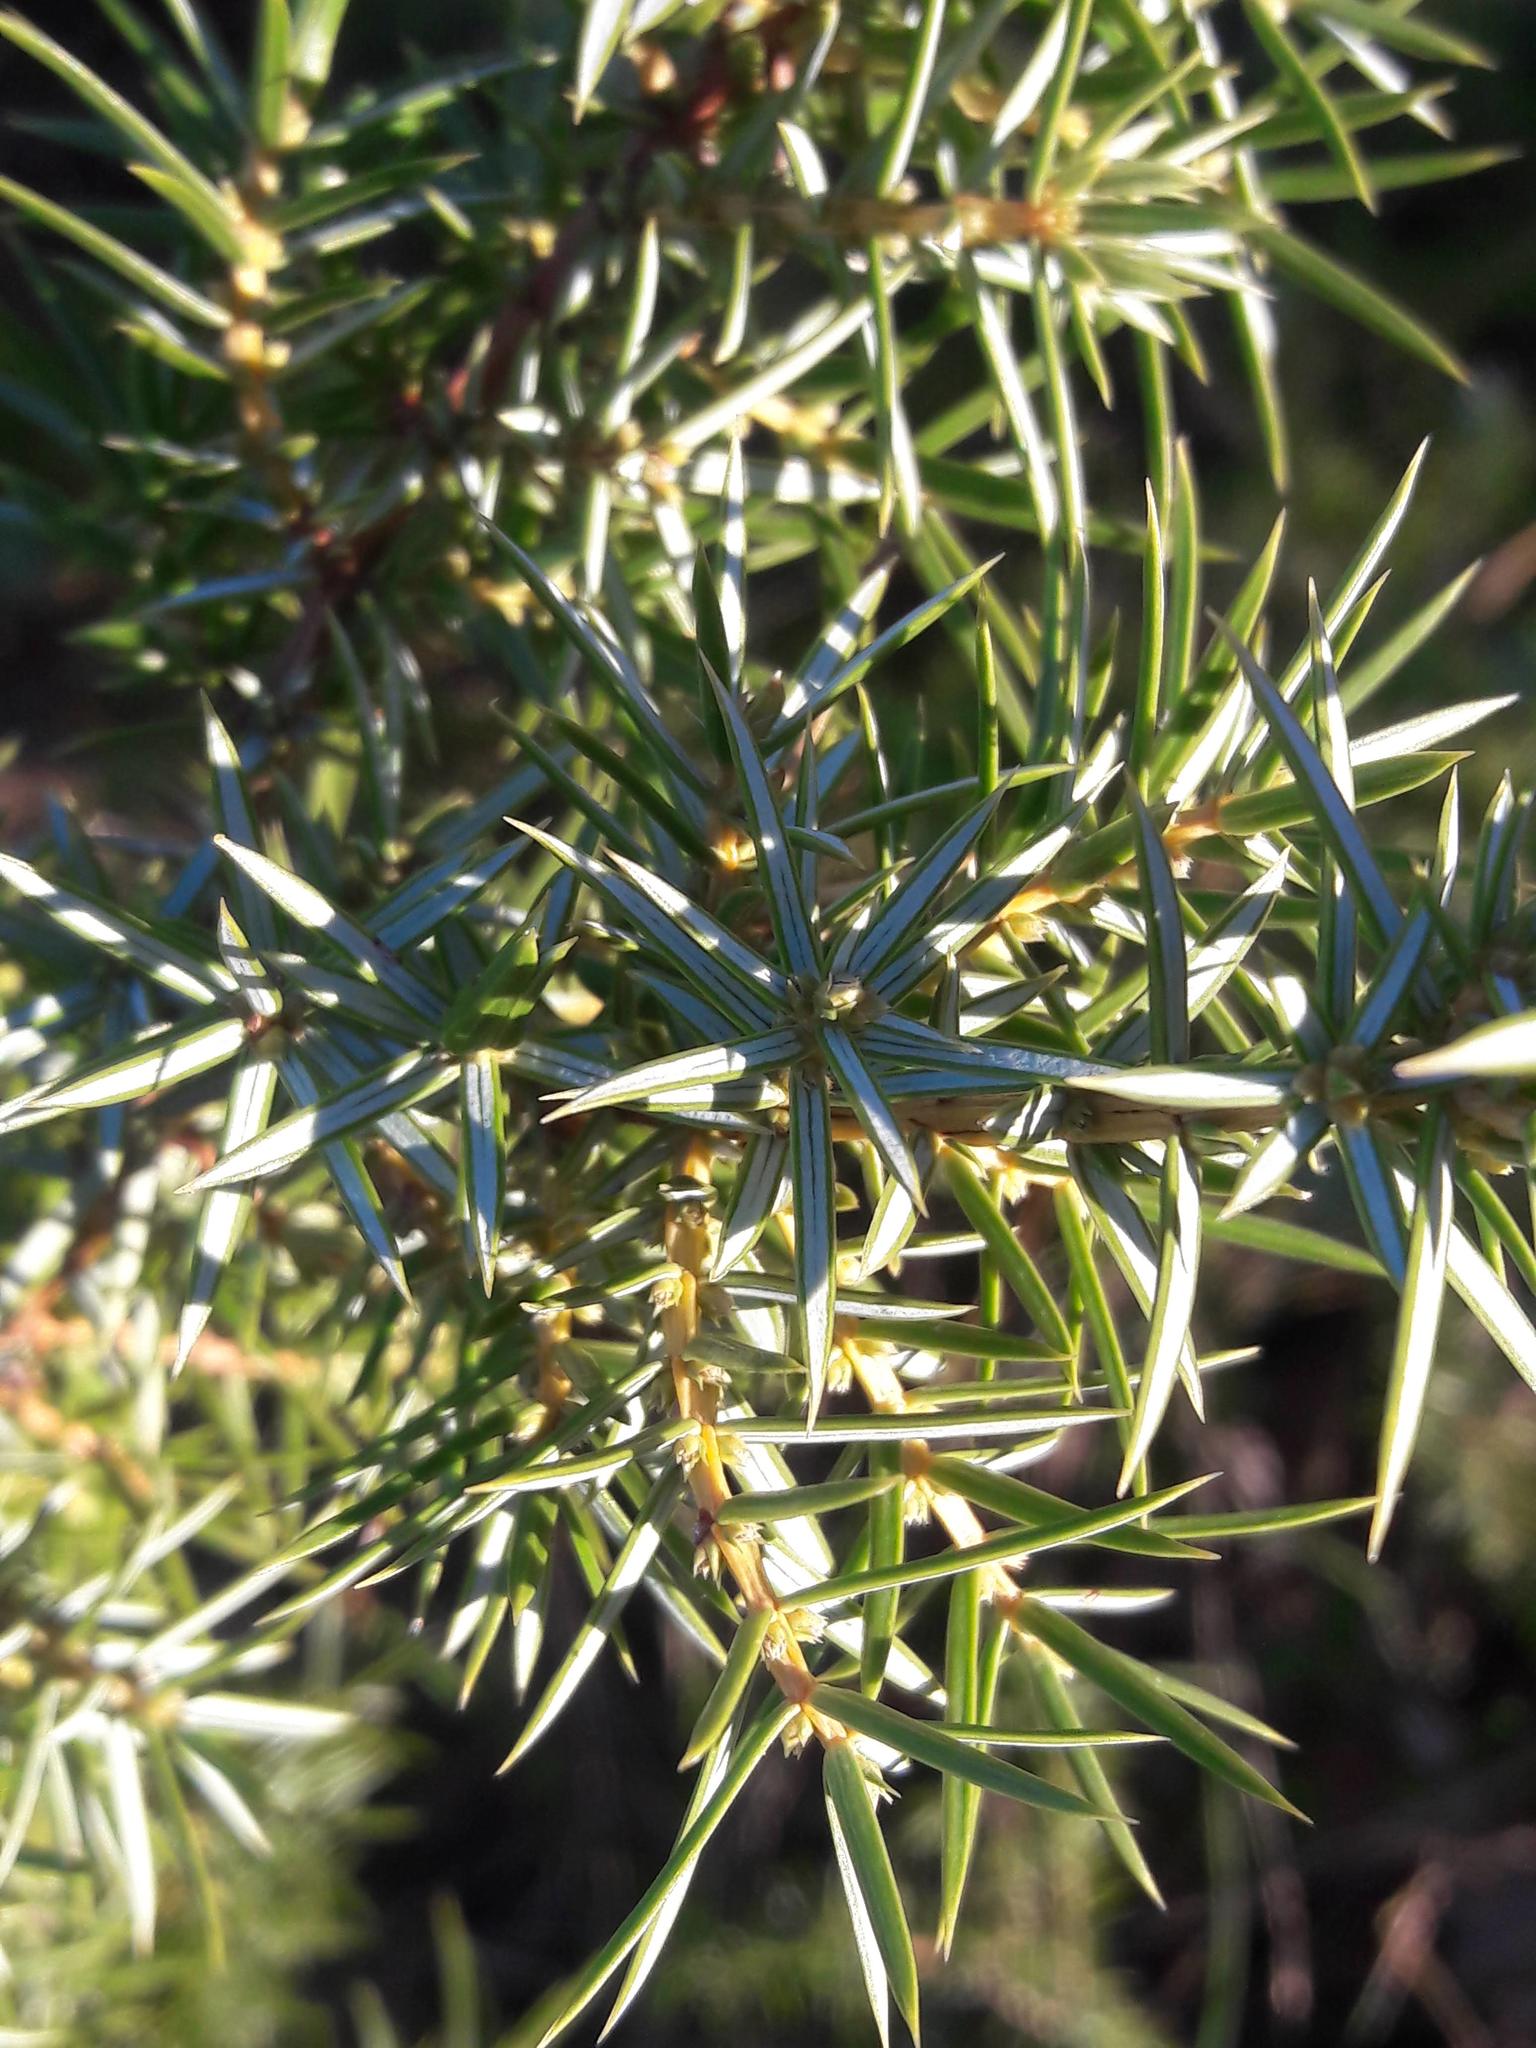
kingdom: Plantae
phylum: Tracheophyta
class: Pinopsida
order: Pinales
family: Cupressaceae
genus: Juniperus
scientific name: Juniperus oxycedrus
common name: Prickly juniper
